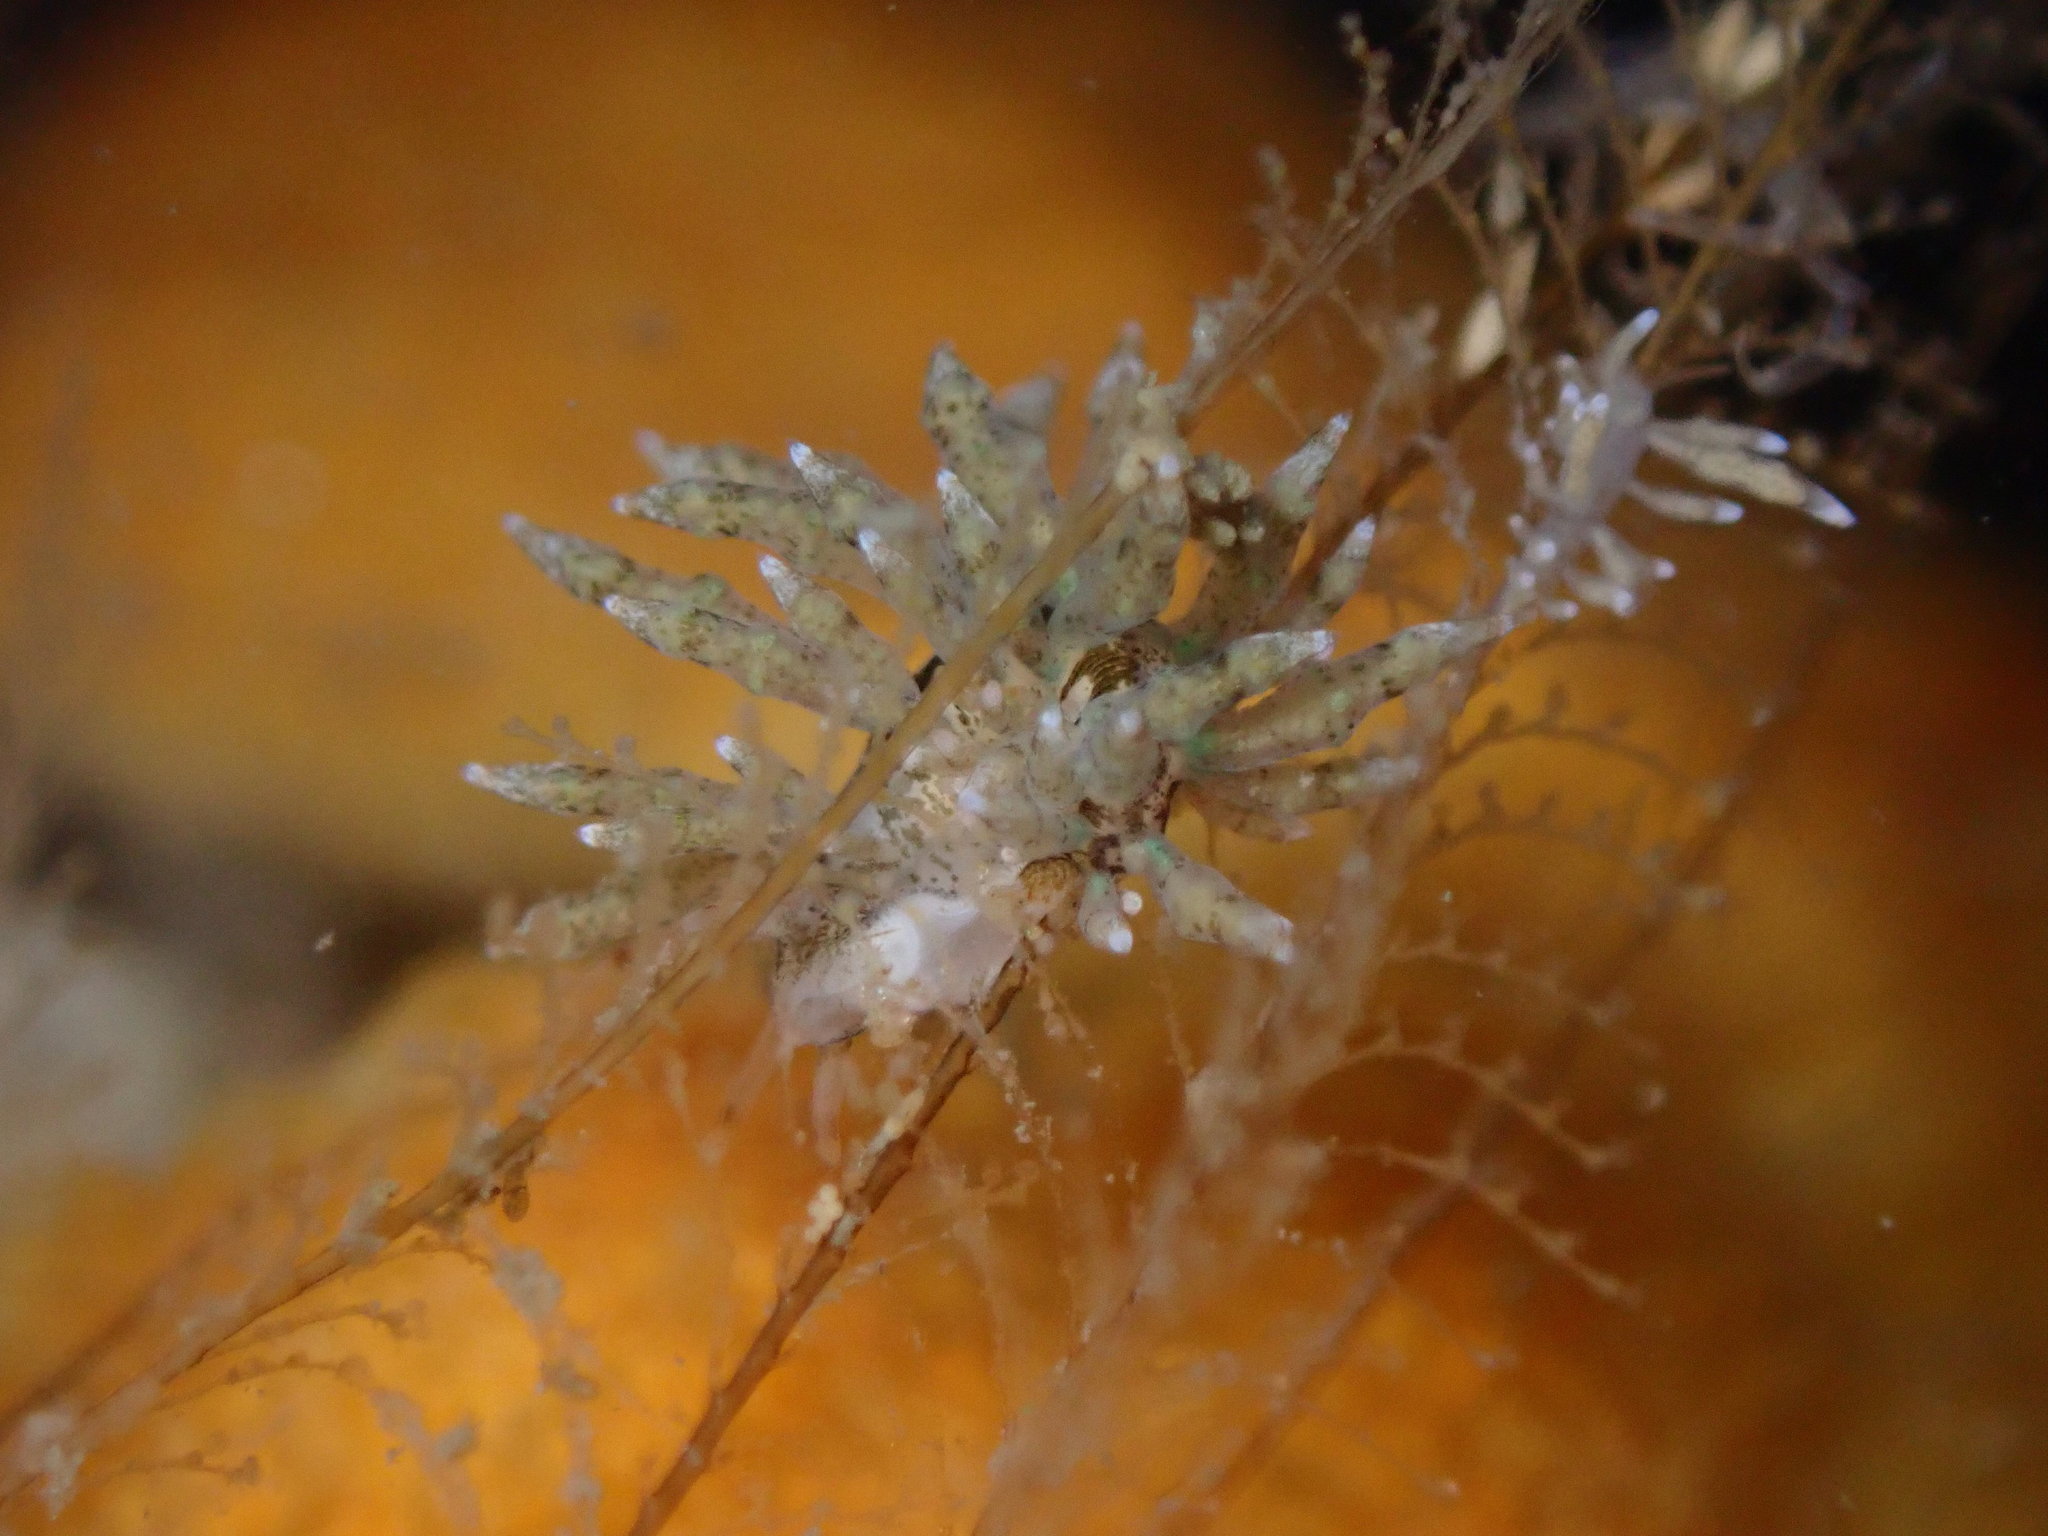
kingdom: Animalia
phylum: Mollusca
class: Gastropoda
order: Nudibranchia
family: Eubranchidae
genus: Eubranchus
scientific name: Eubranchus rustyus
